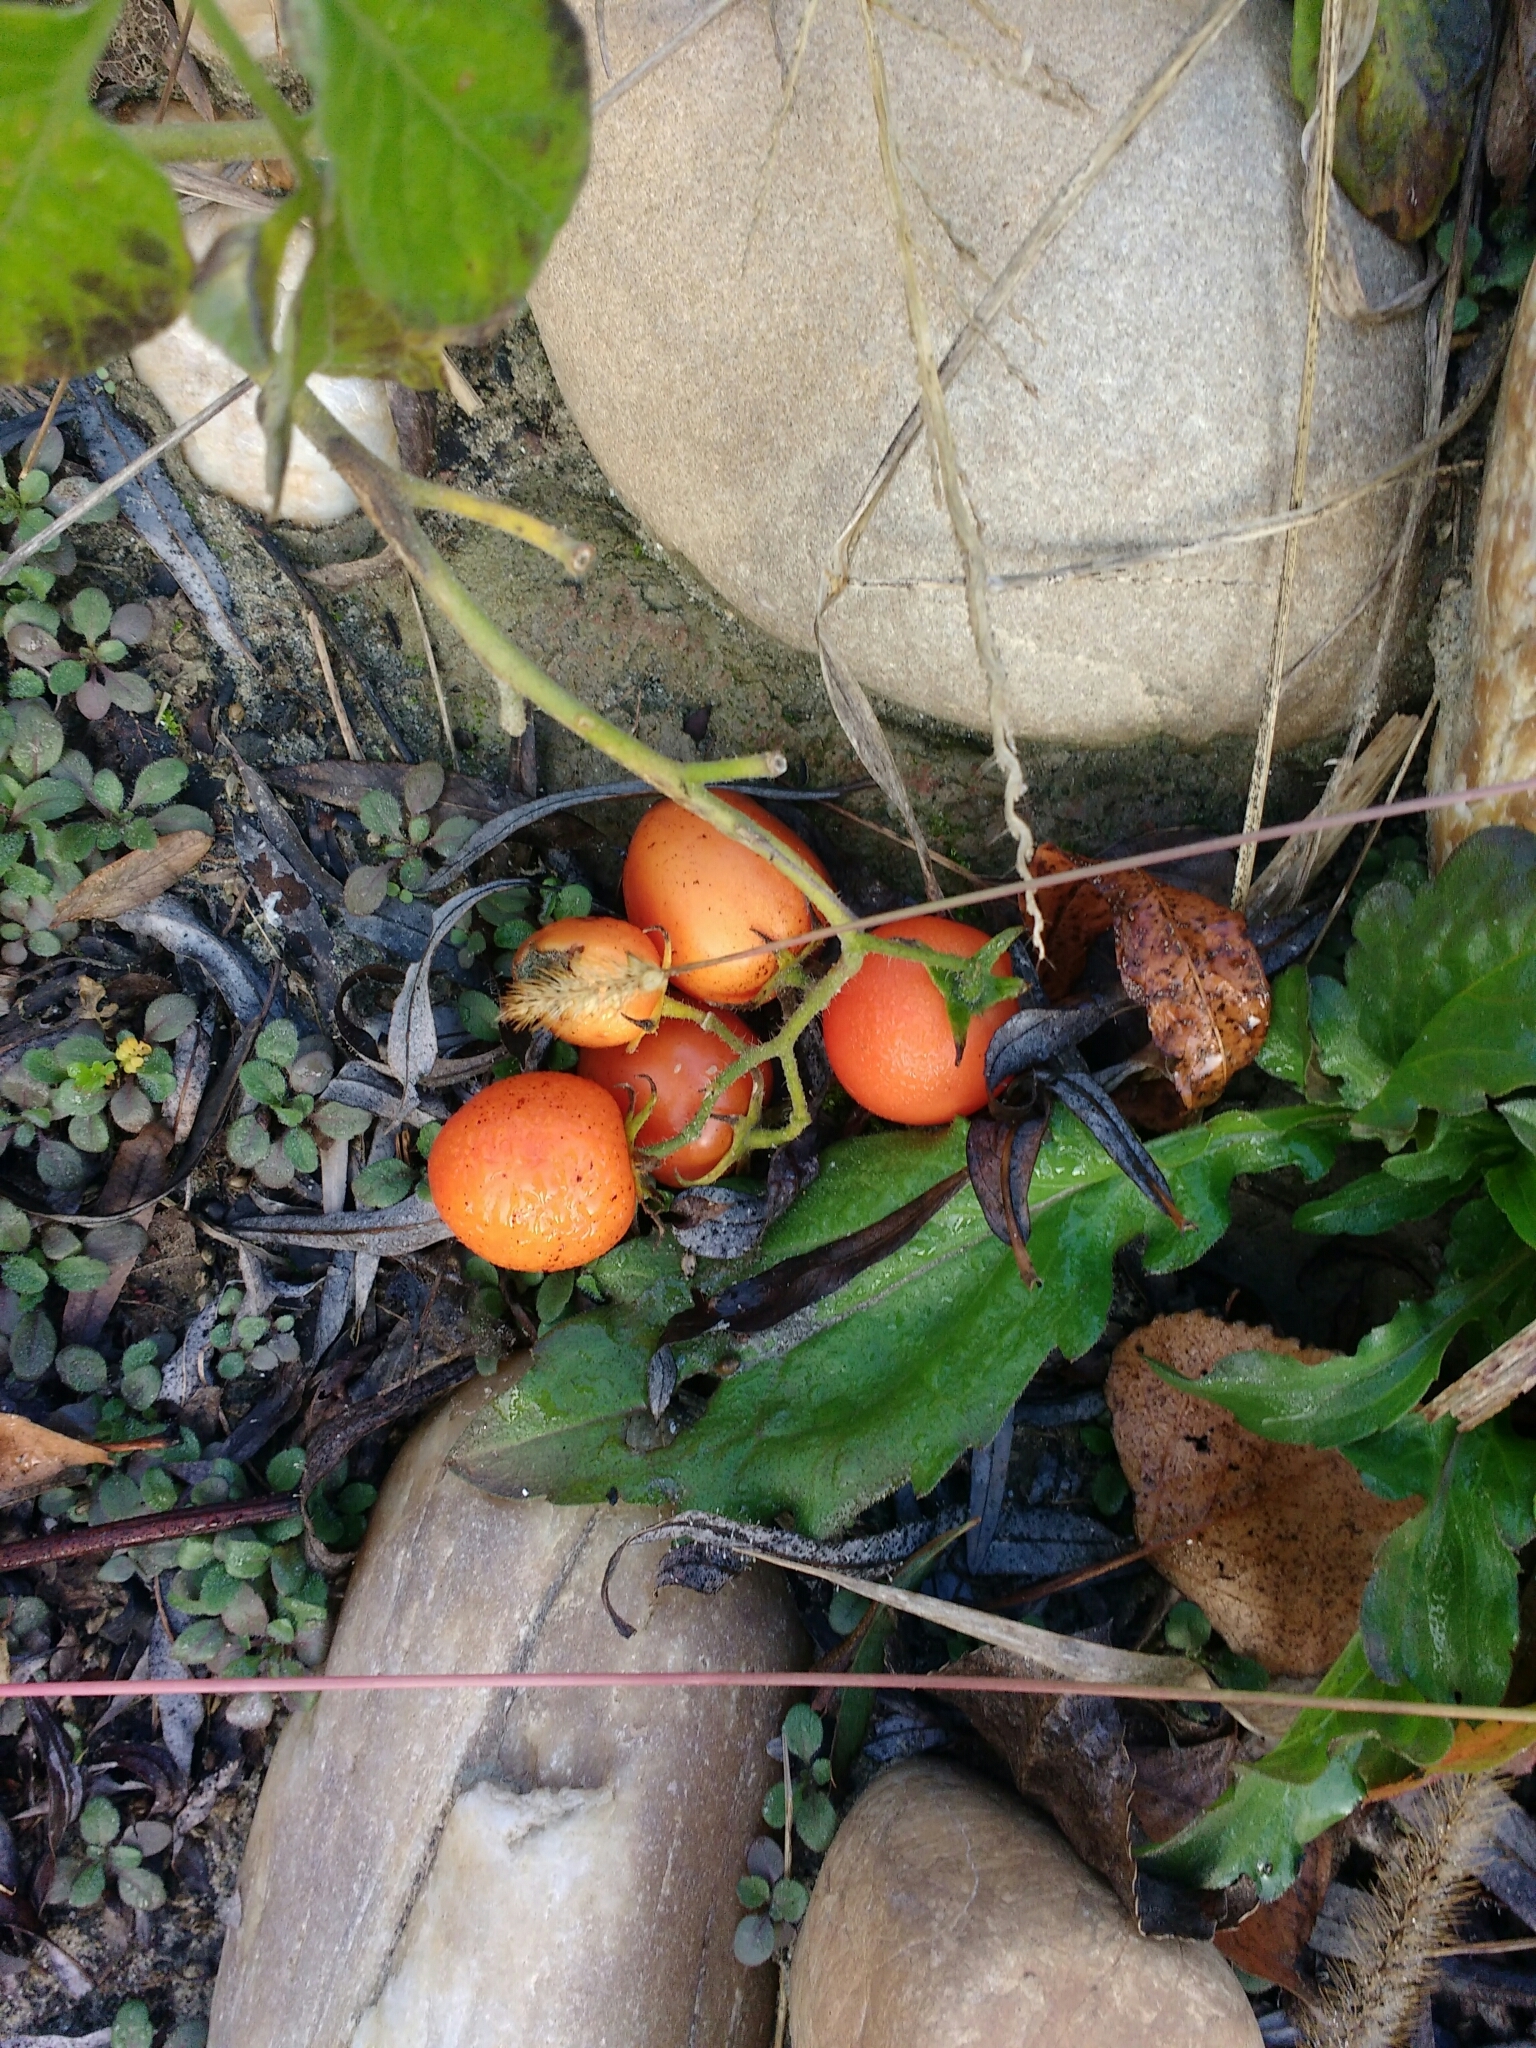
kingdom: Plantae
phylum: Tracheophyta
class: Magnoliopsida
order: Solanales
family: Solanaceae
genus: Solanum
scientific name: Solanum lycopersicum
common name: Garden tomato
